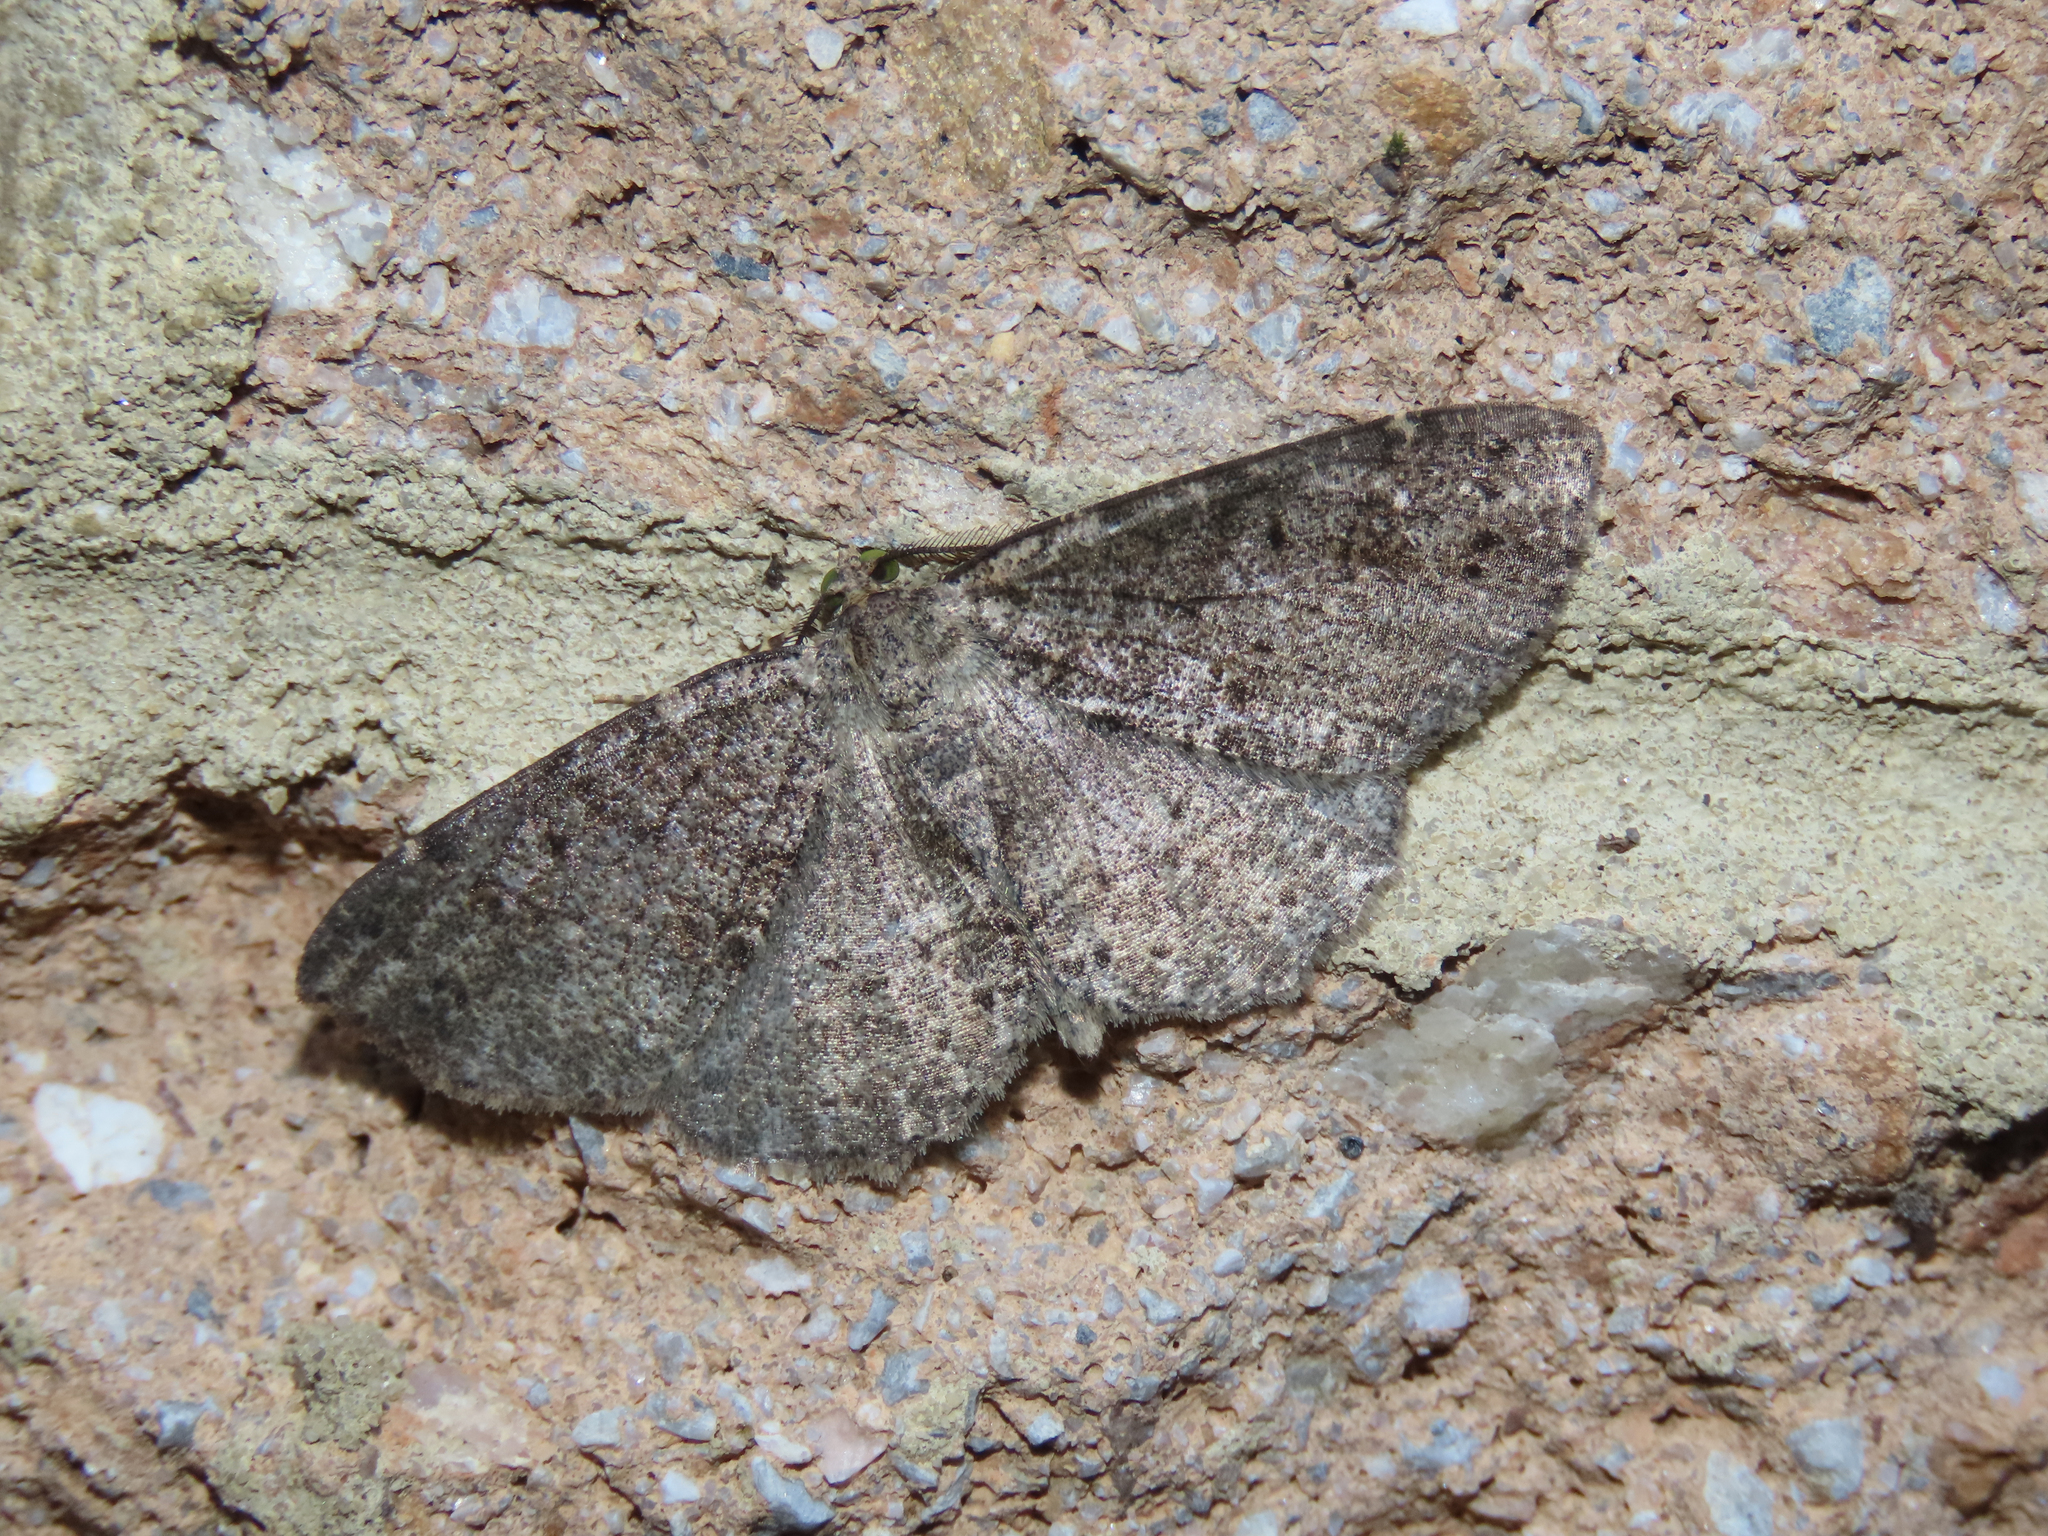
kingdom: Animalia
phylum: Arthropoda
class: Insecta
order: Lepidoptera
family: Geometridae
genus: Melanolophia
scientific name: Melanolophia canadaria
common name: Canadian melanolophia
